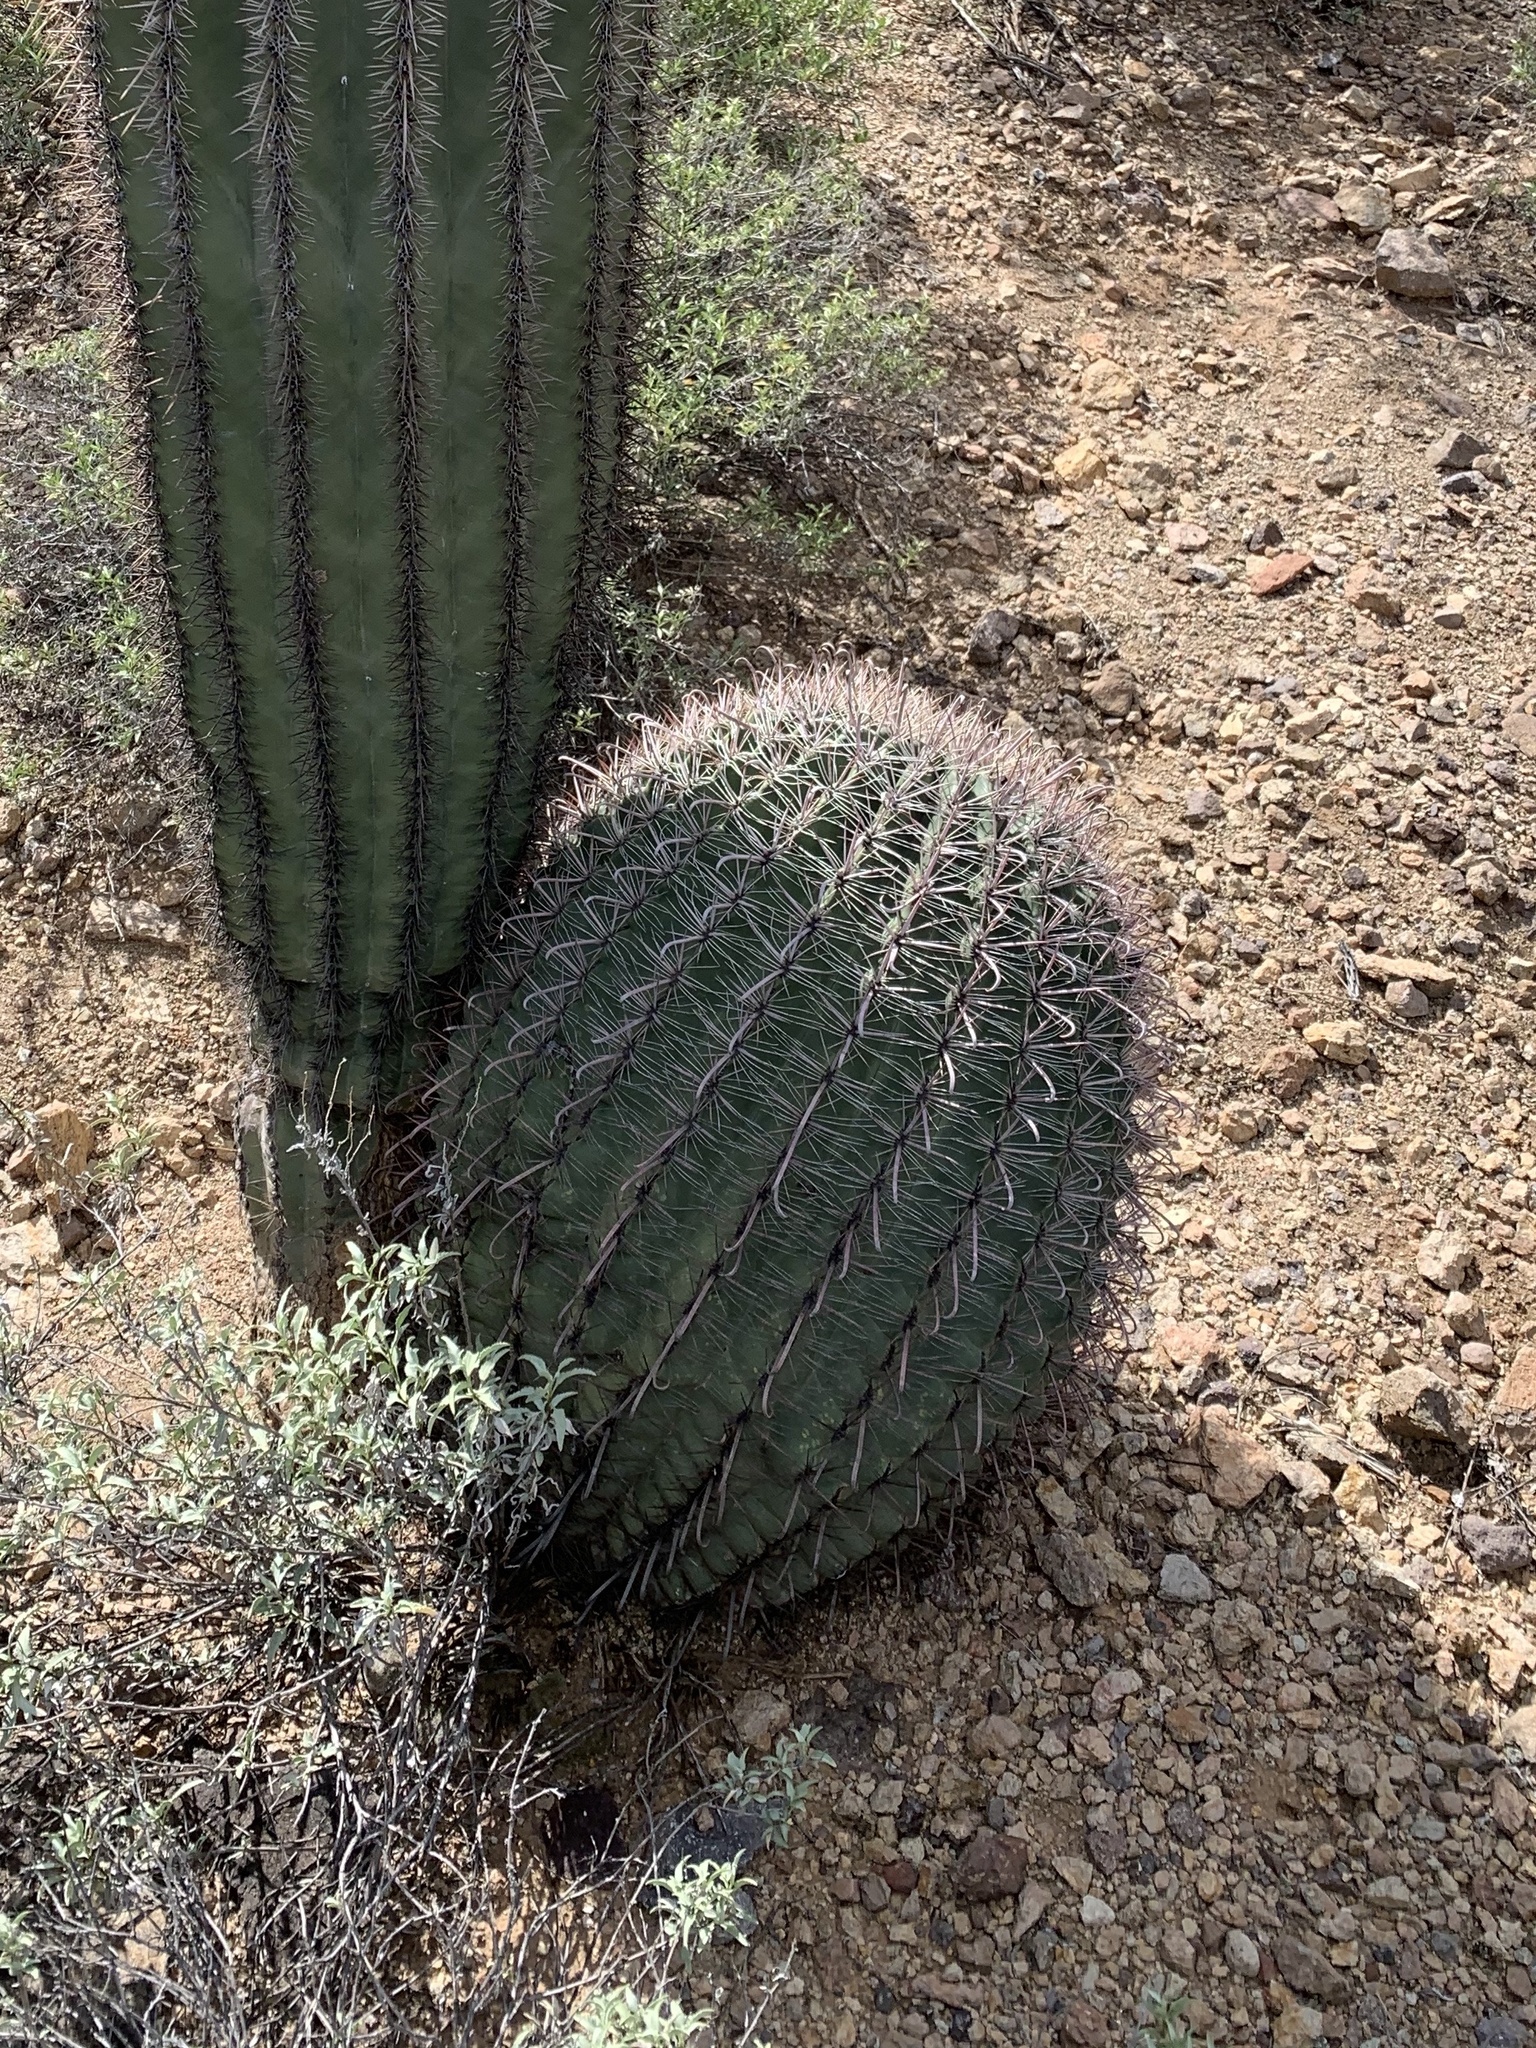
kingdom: Plantae
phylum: Tracheophyta
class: Magnoliopsida
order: Caryophyllales
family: Cactaceae
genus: Ferocactus
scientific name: Ferocactus wislizeni
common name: Candy barrel cactus
